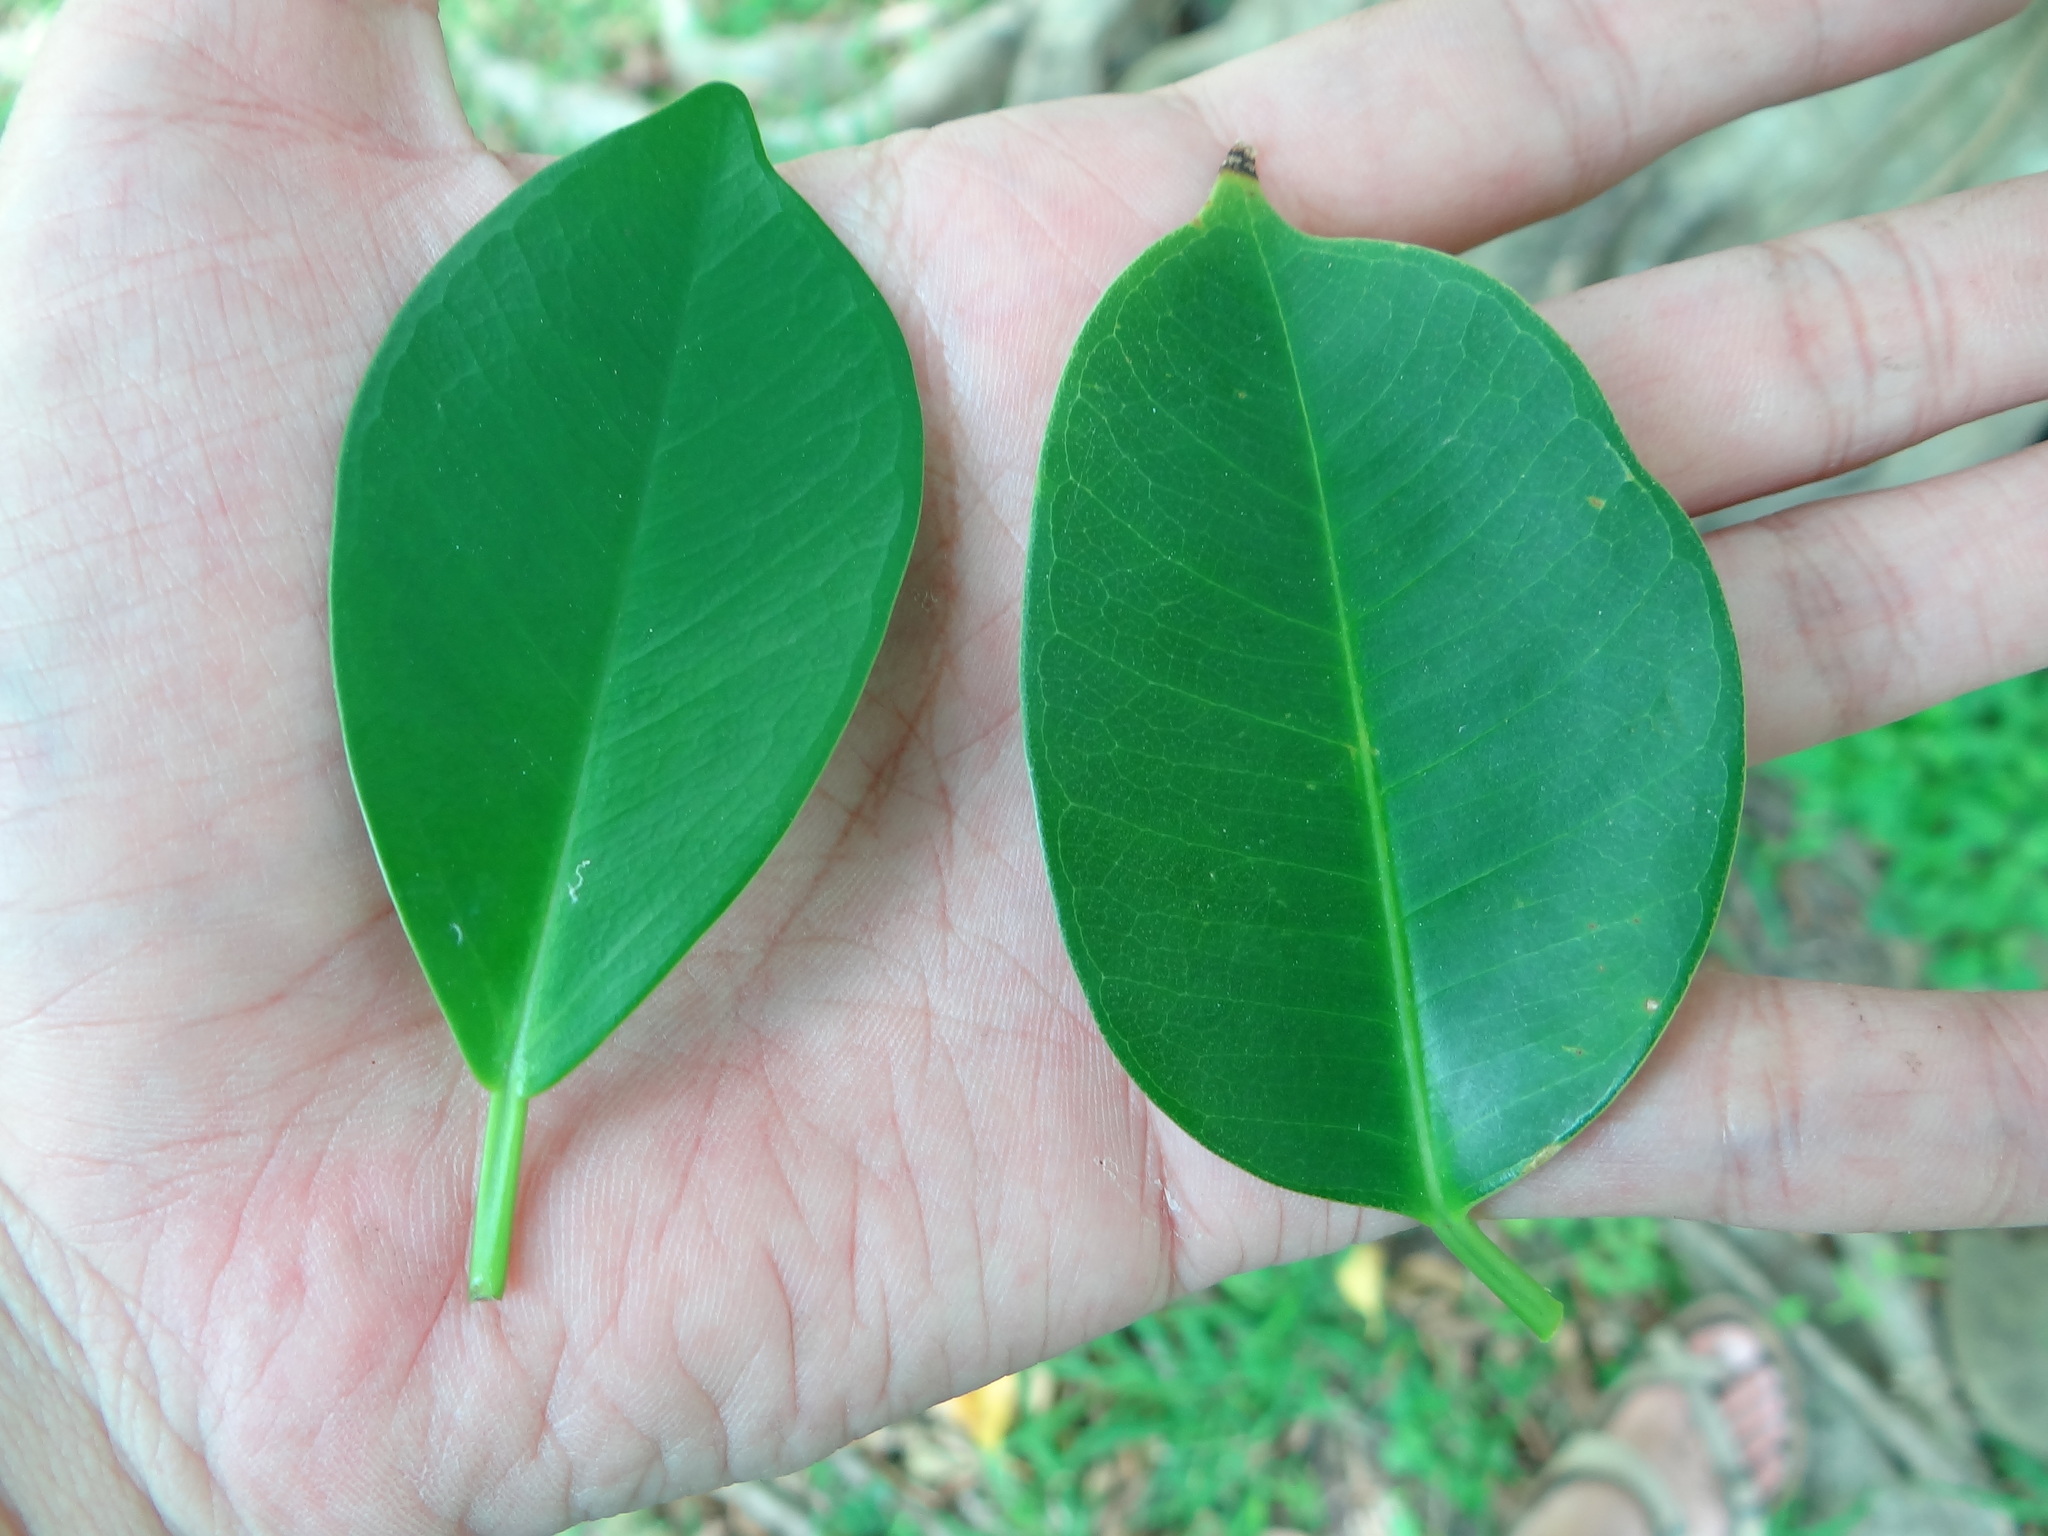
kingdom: Plantae
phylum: Tracheophyta
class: Magnoliopsida
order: Rosales
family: Moraceae
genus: Ficus
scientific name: Ficus benjamina
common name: Weeping fig
